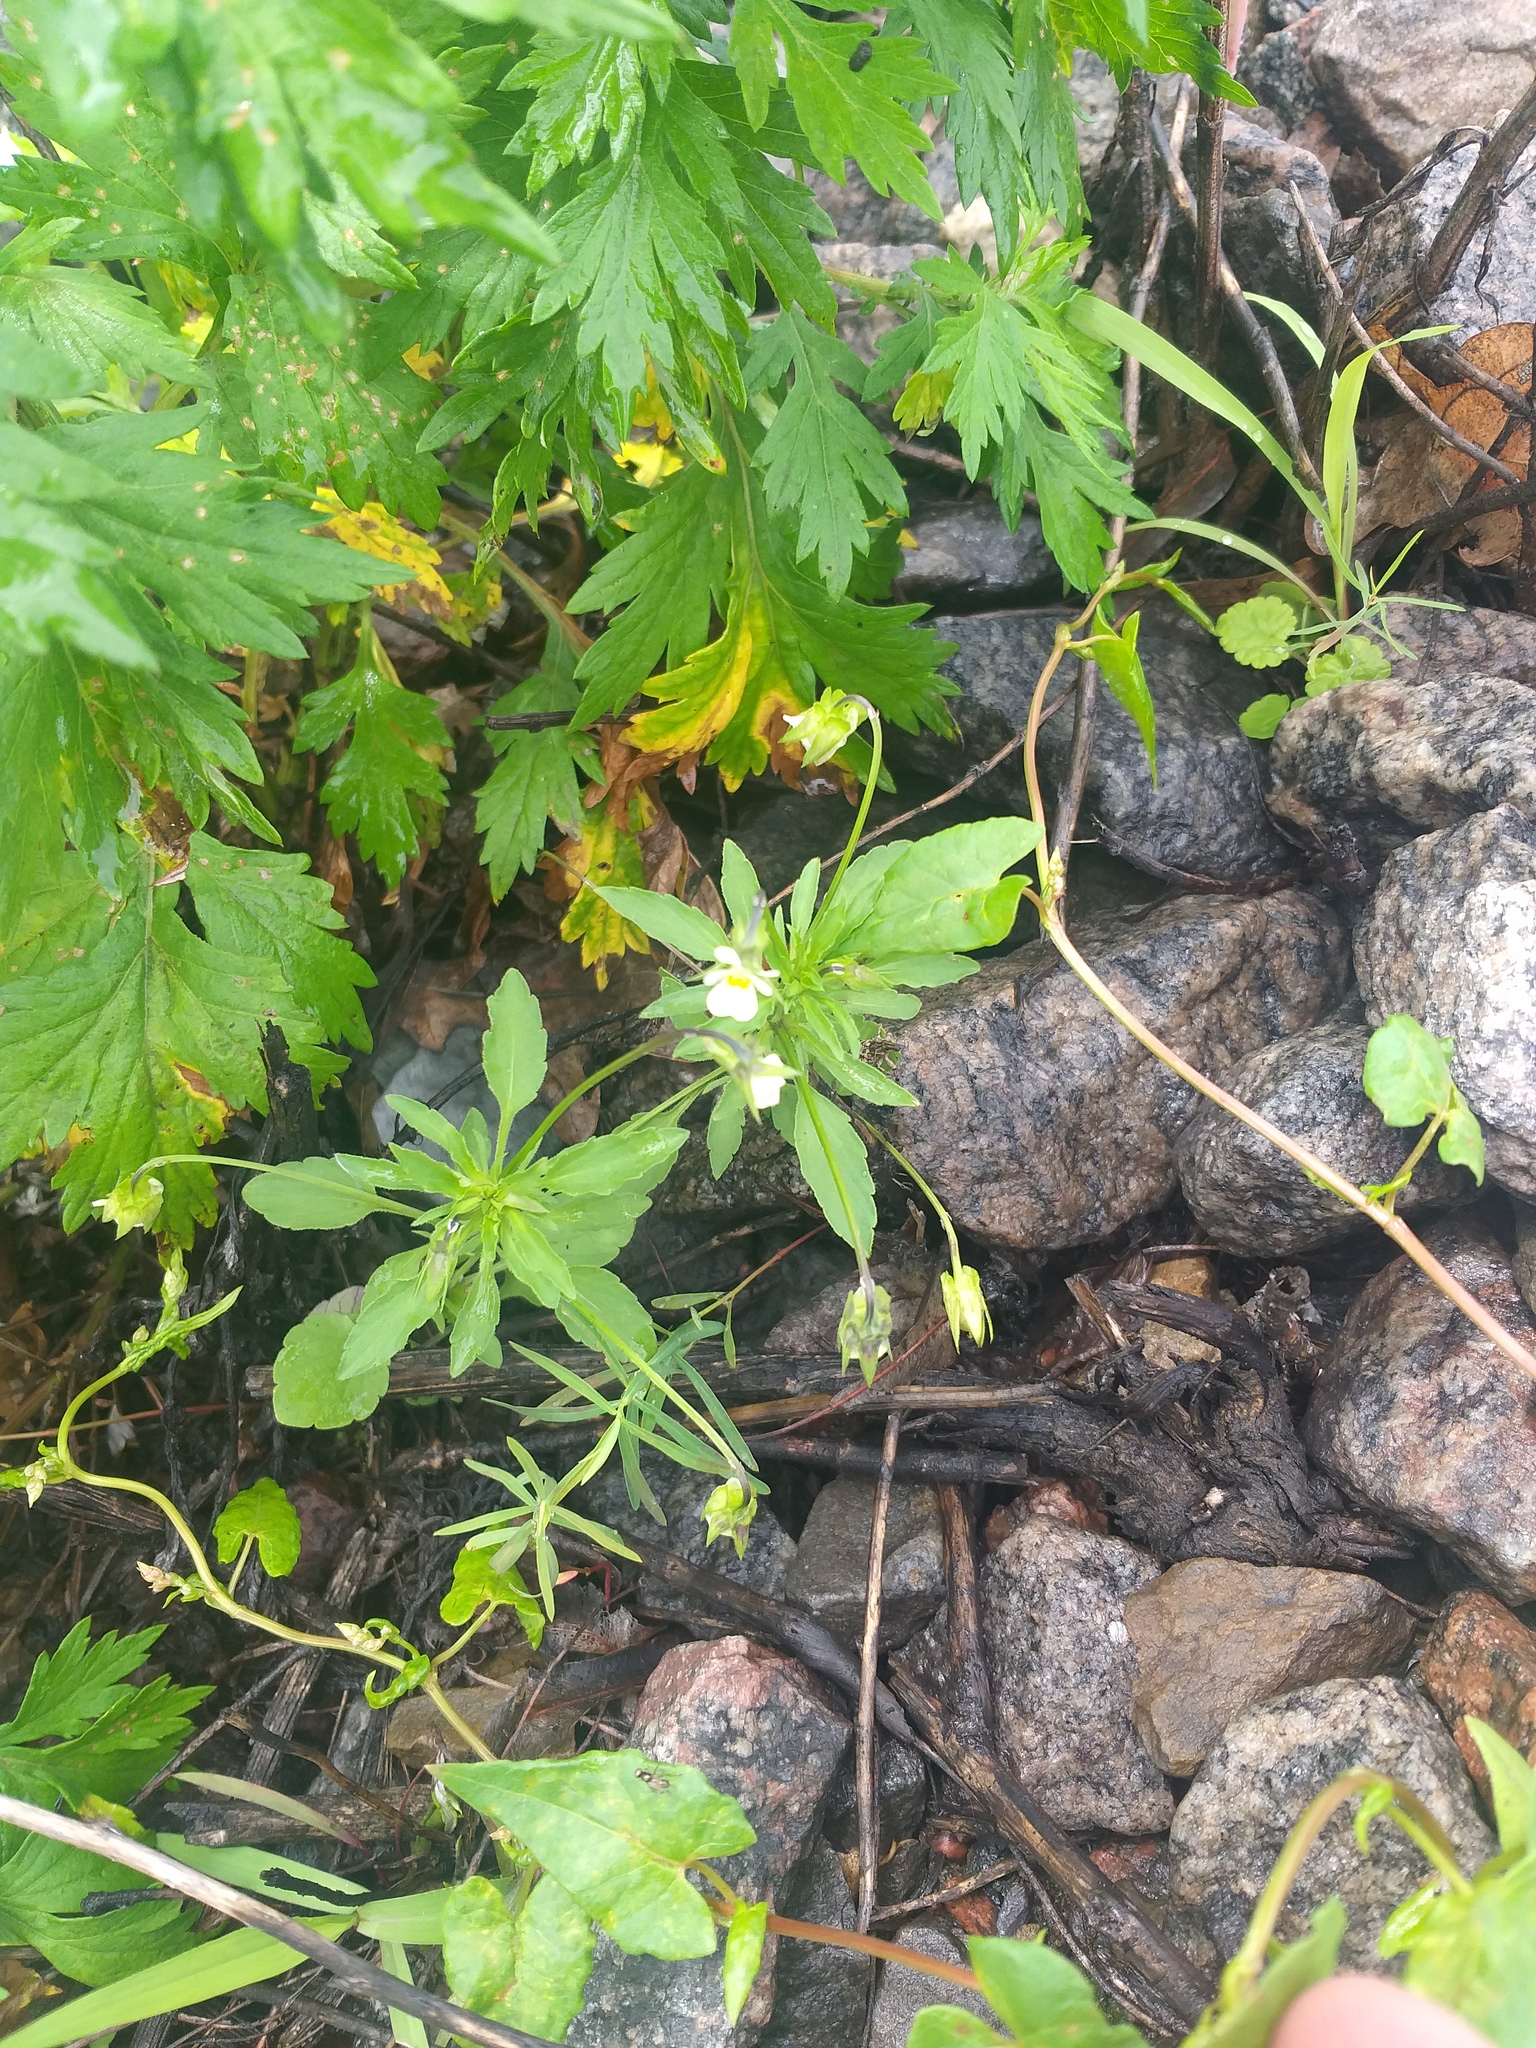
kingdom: Plantae
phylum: Tracheophyta
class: Magnoliopsida
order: Malpighiales
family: Violaceae
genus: Viola
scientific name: Viola arvensis
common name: Field pansy
